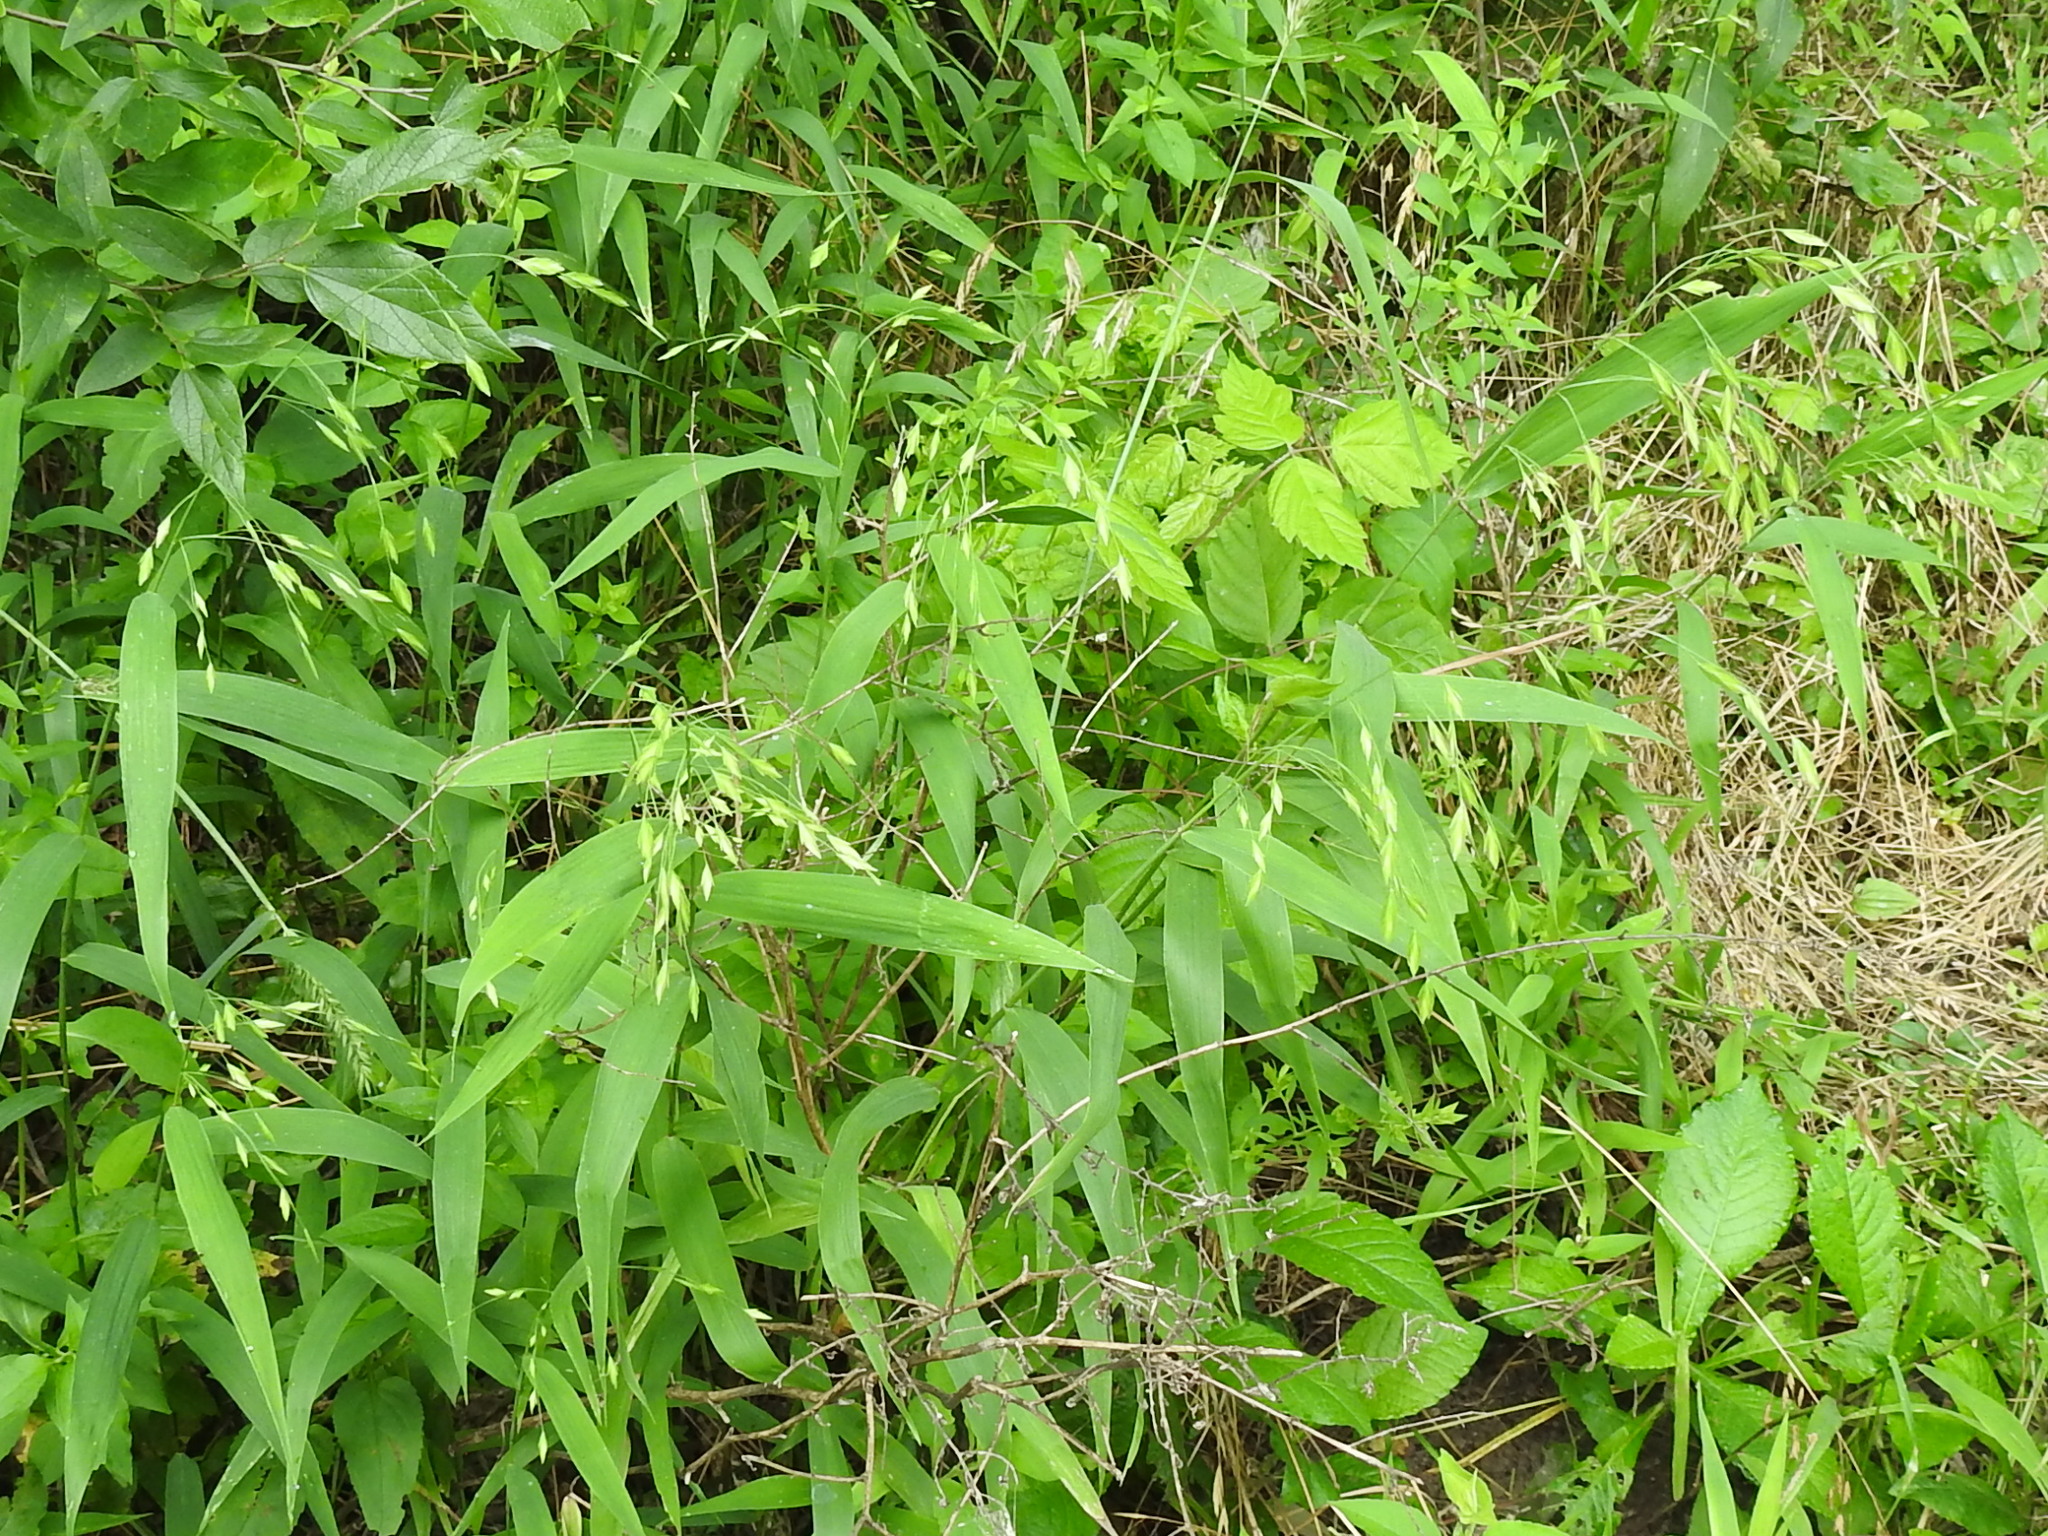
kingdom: Plantae
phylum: Tracheophyta
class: Liliopsida
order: Poales
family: Poaceae
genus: Chasmanthium
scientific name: Chasmanthium latifolium
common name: Broad-leaved chasmanthium
